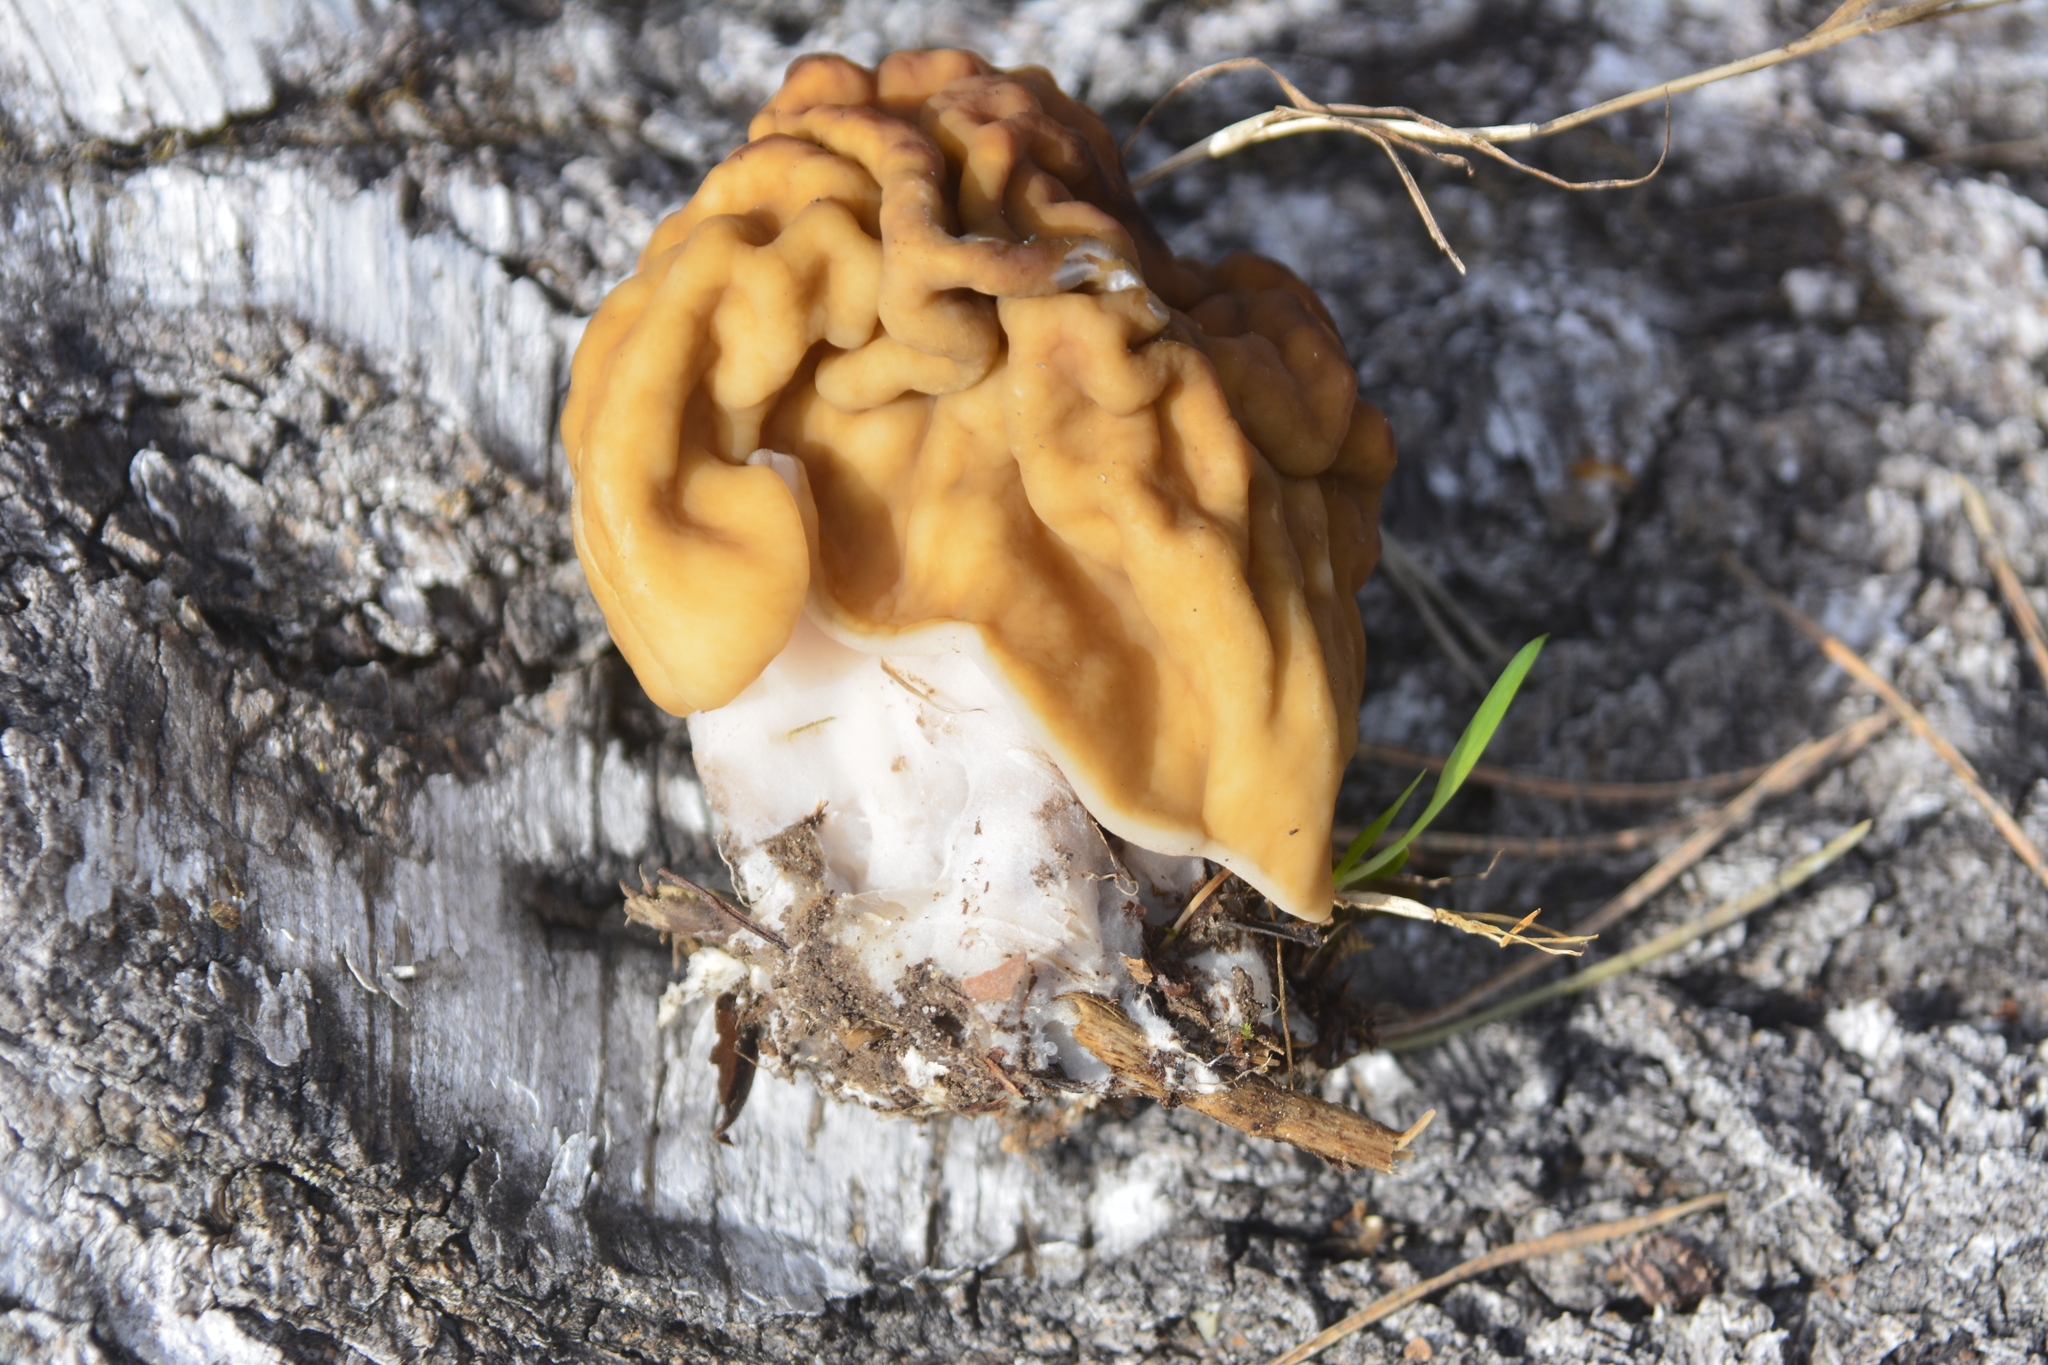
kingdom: Fungi
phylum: Ascomycota
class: Pezizomycetes
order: Pezizales
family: Discinaceae
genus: Gyromitra
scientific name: Gyromitra gigas
